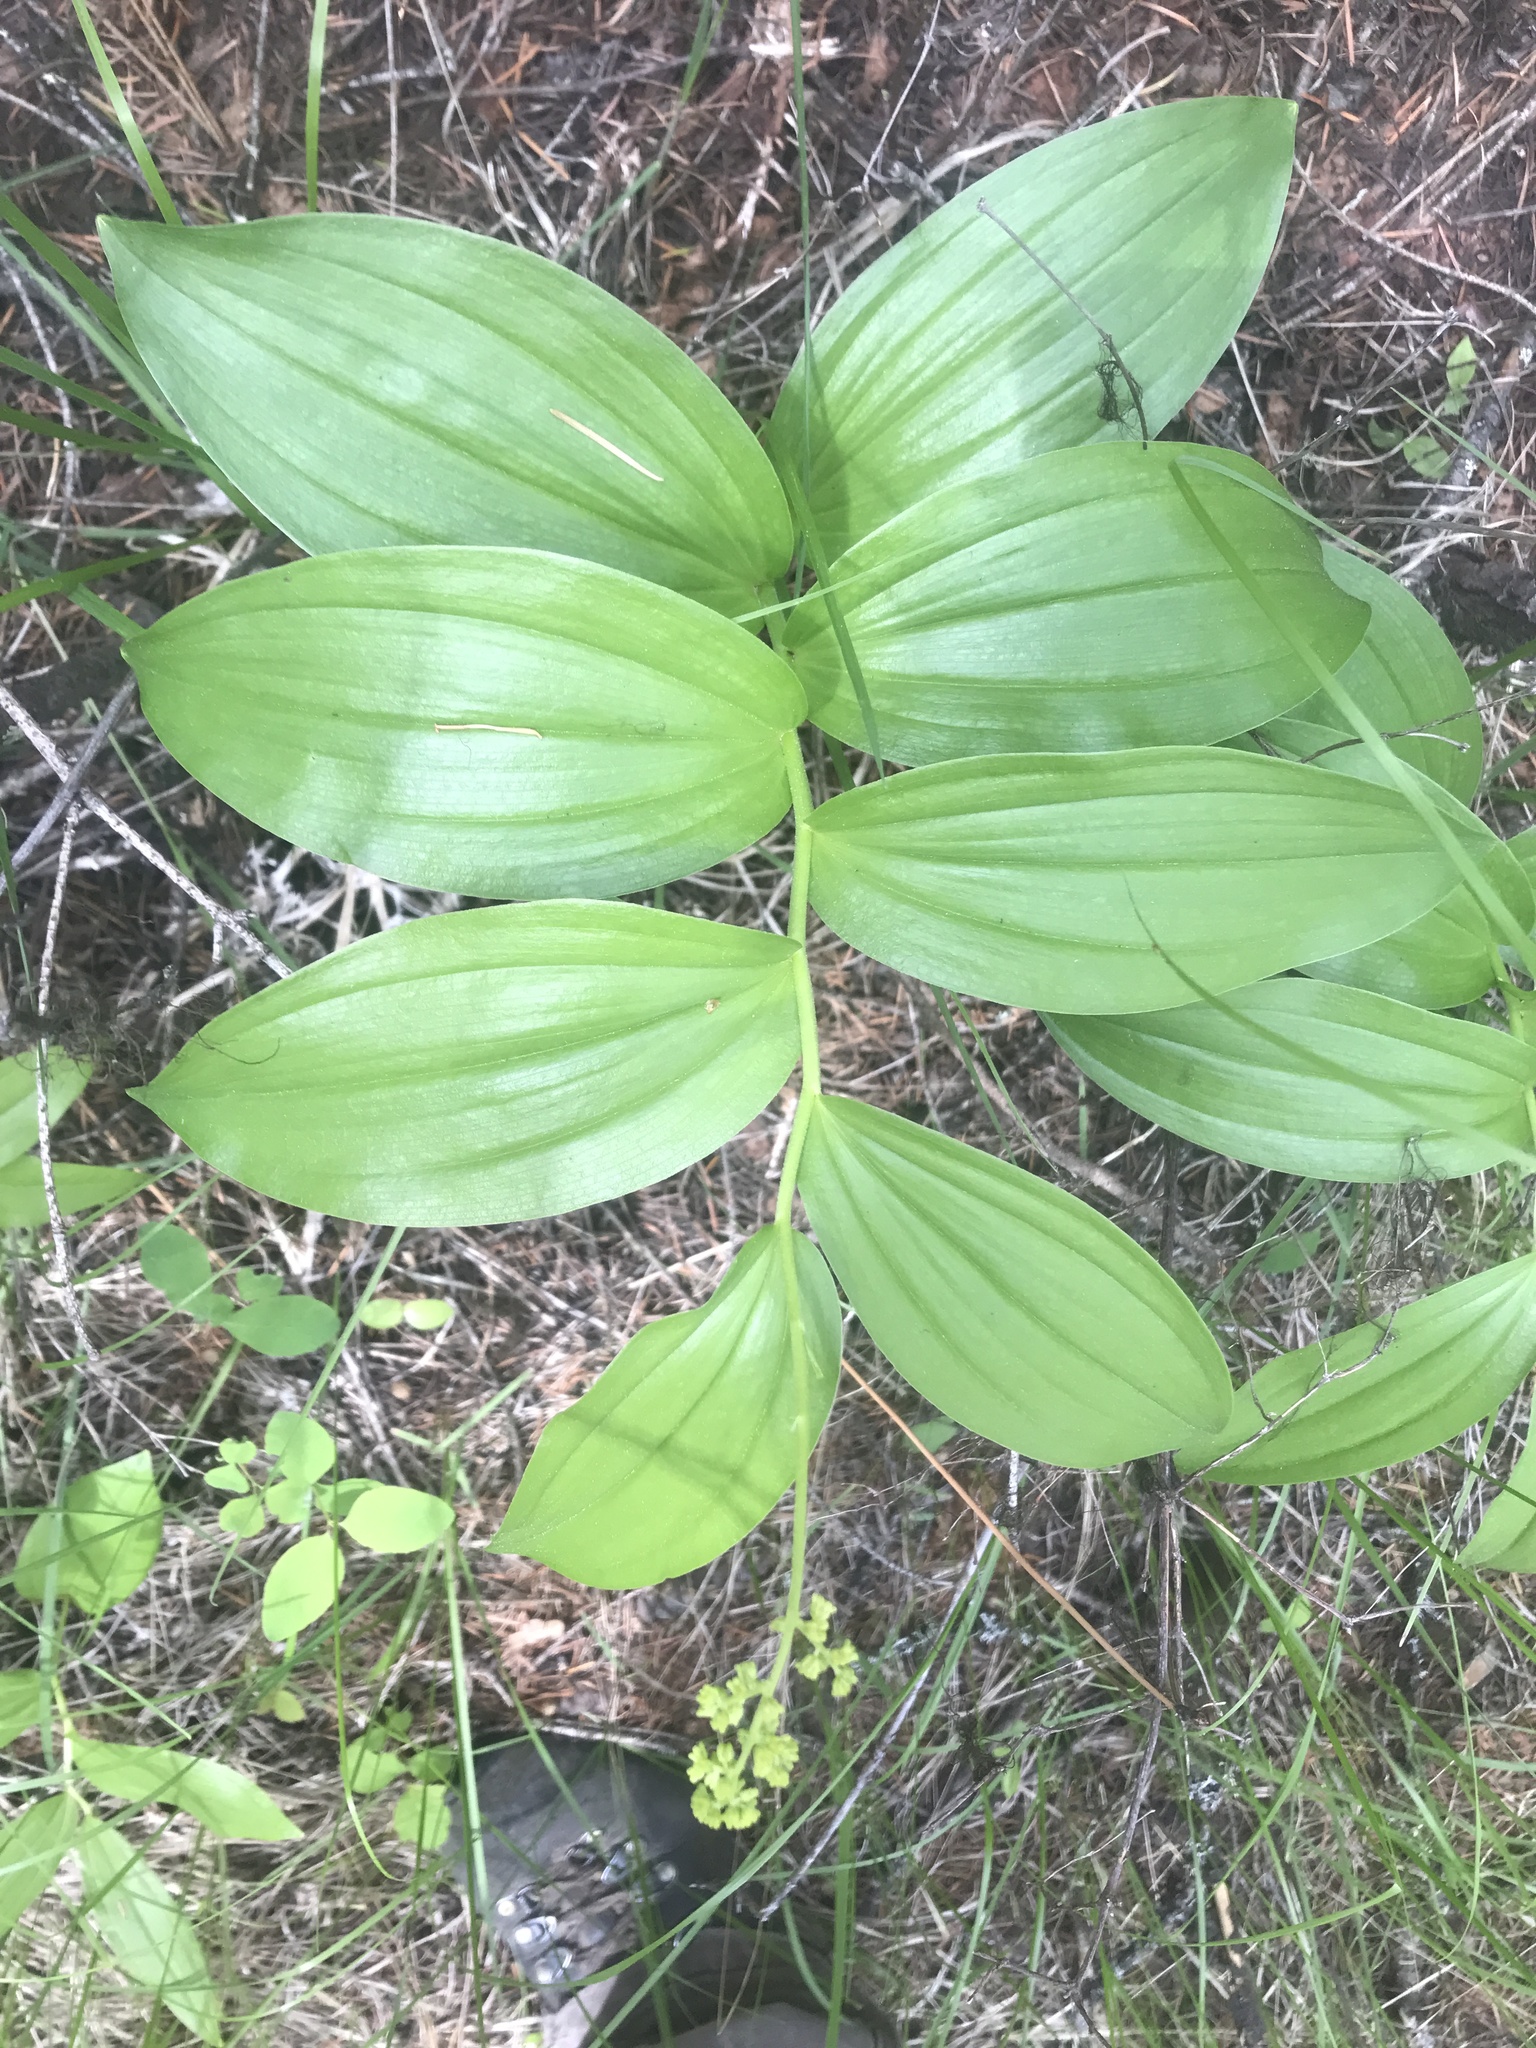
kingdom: Plantae
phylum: Tracheophyta
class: Liliopsida
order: Asparagales
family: Asparagaceae
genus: Maianthemum
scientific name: Maianthemum racemosum
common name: False spikenard
